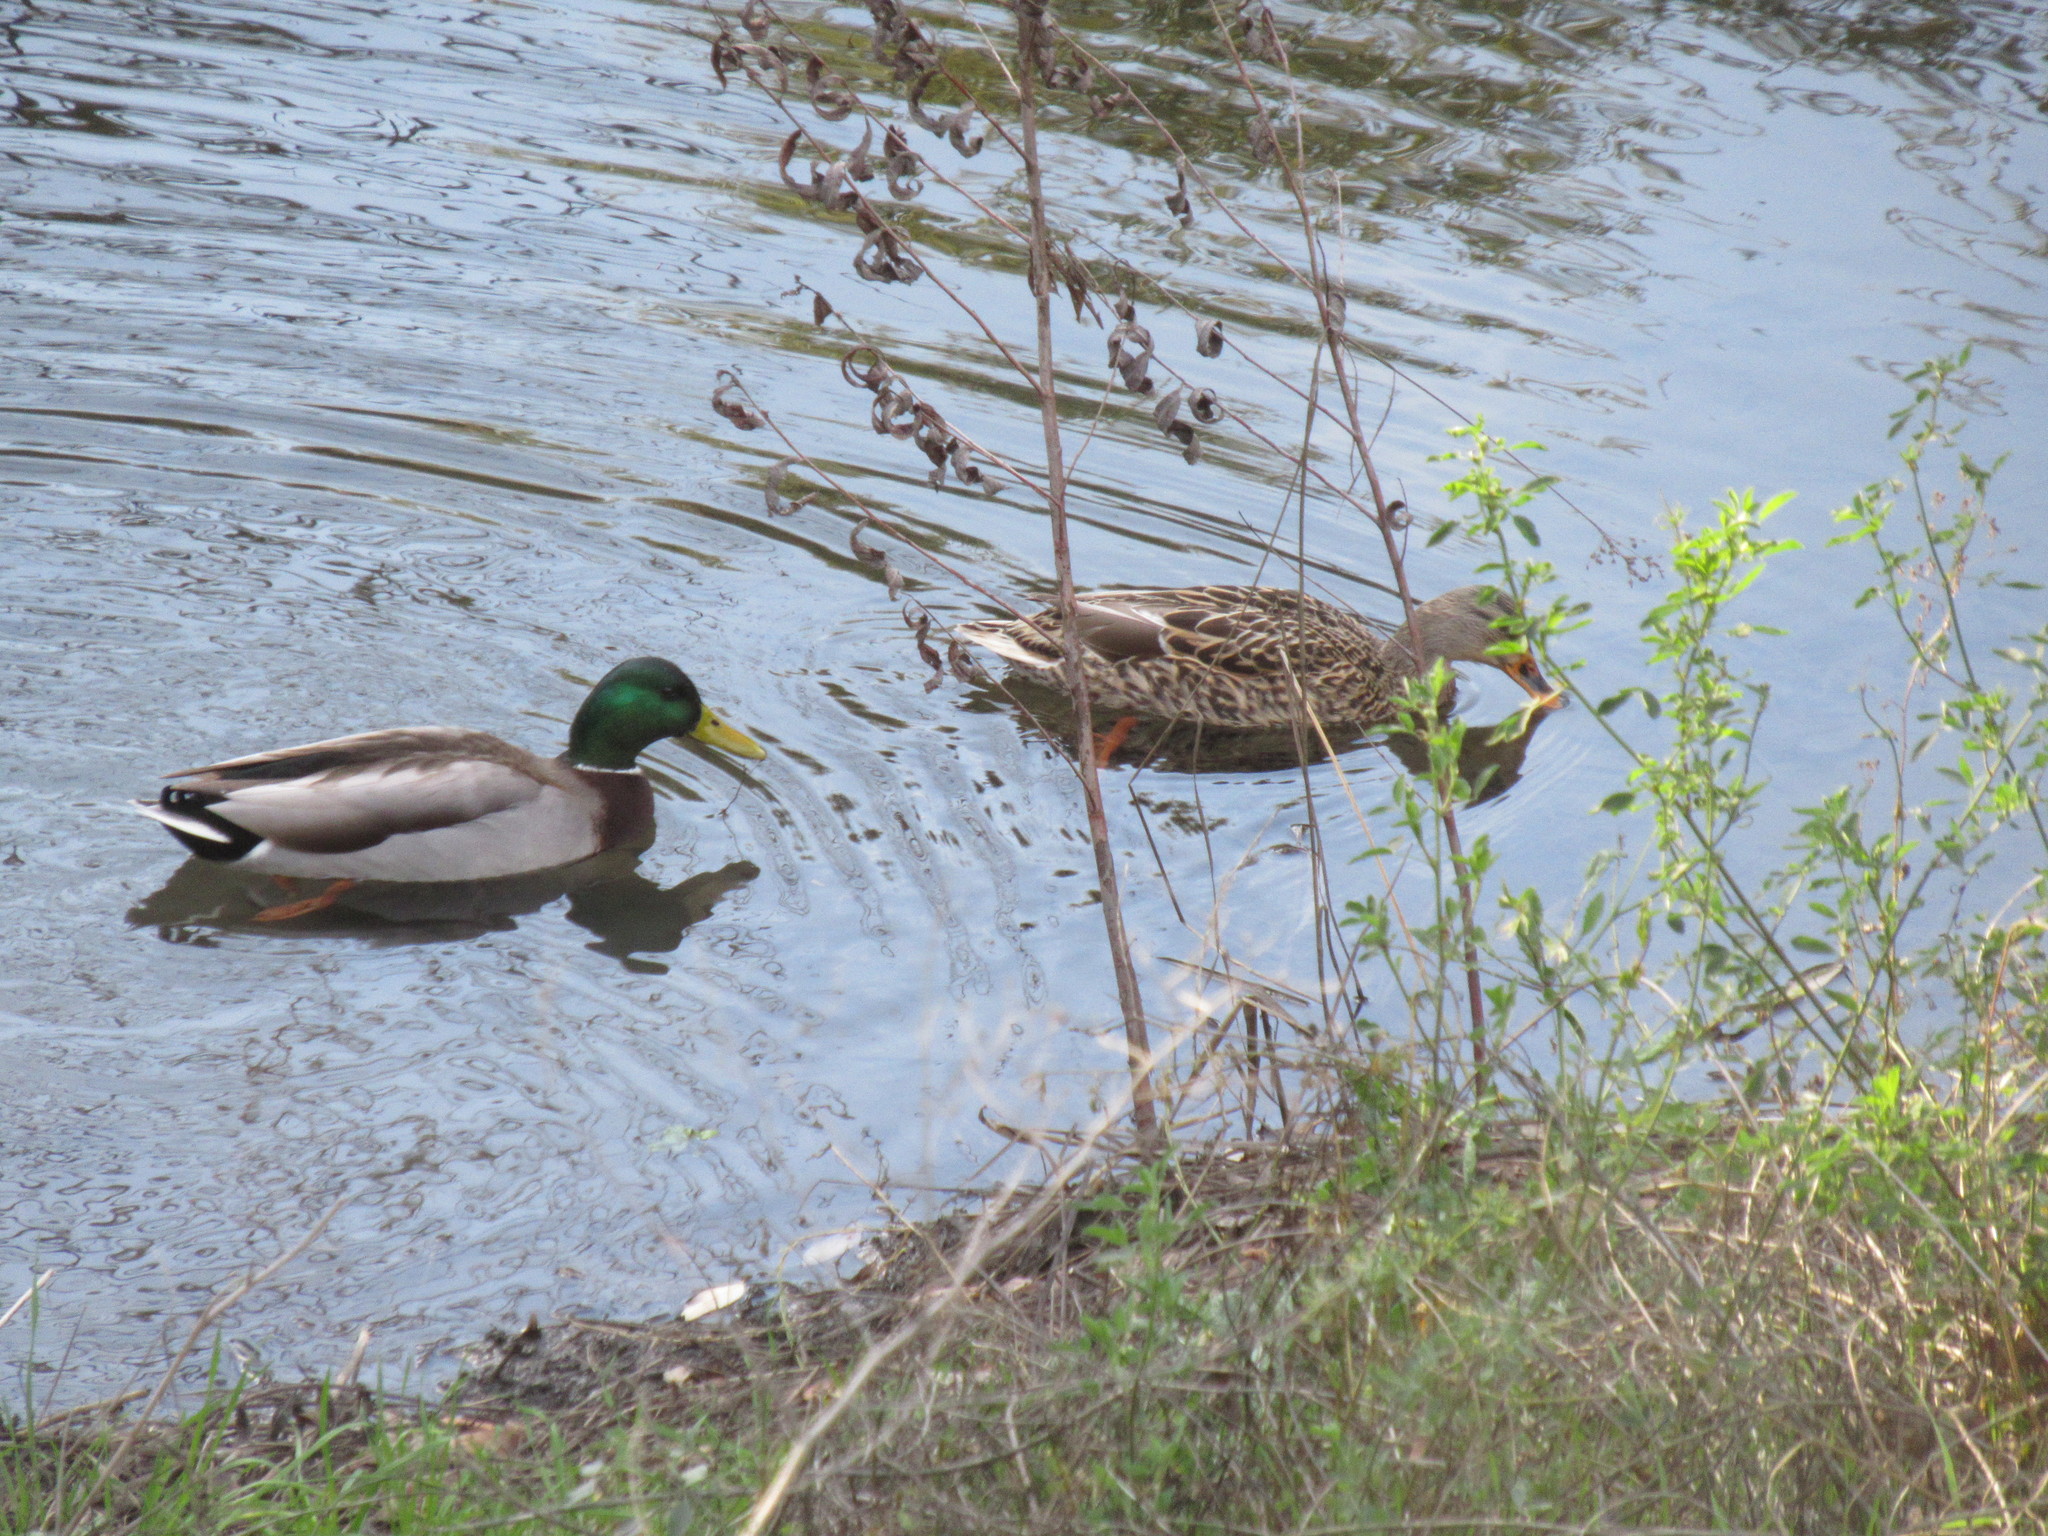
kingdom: Animalia
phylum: Chordata
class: Aves
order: Anseriformes
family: Anatidae
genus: Anas
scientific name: Anas platyrhynchos
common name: Mallard
